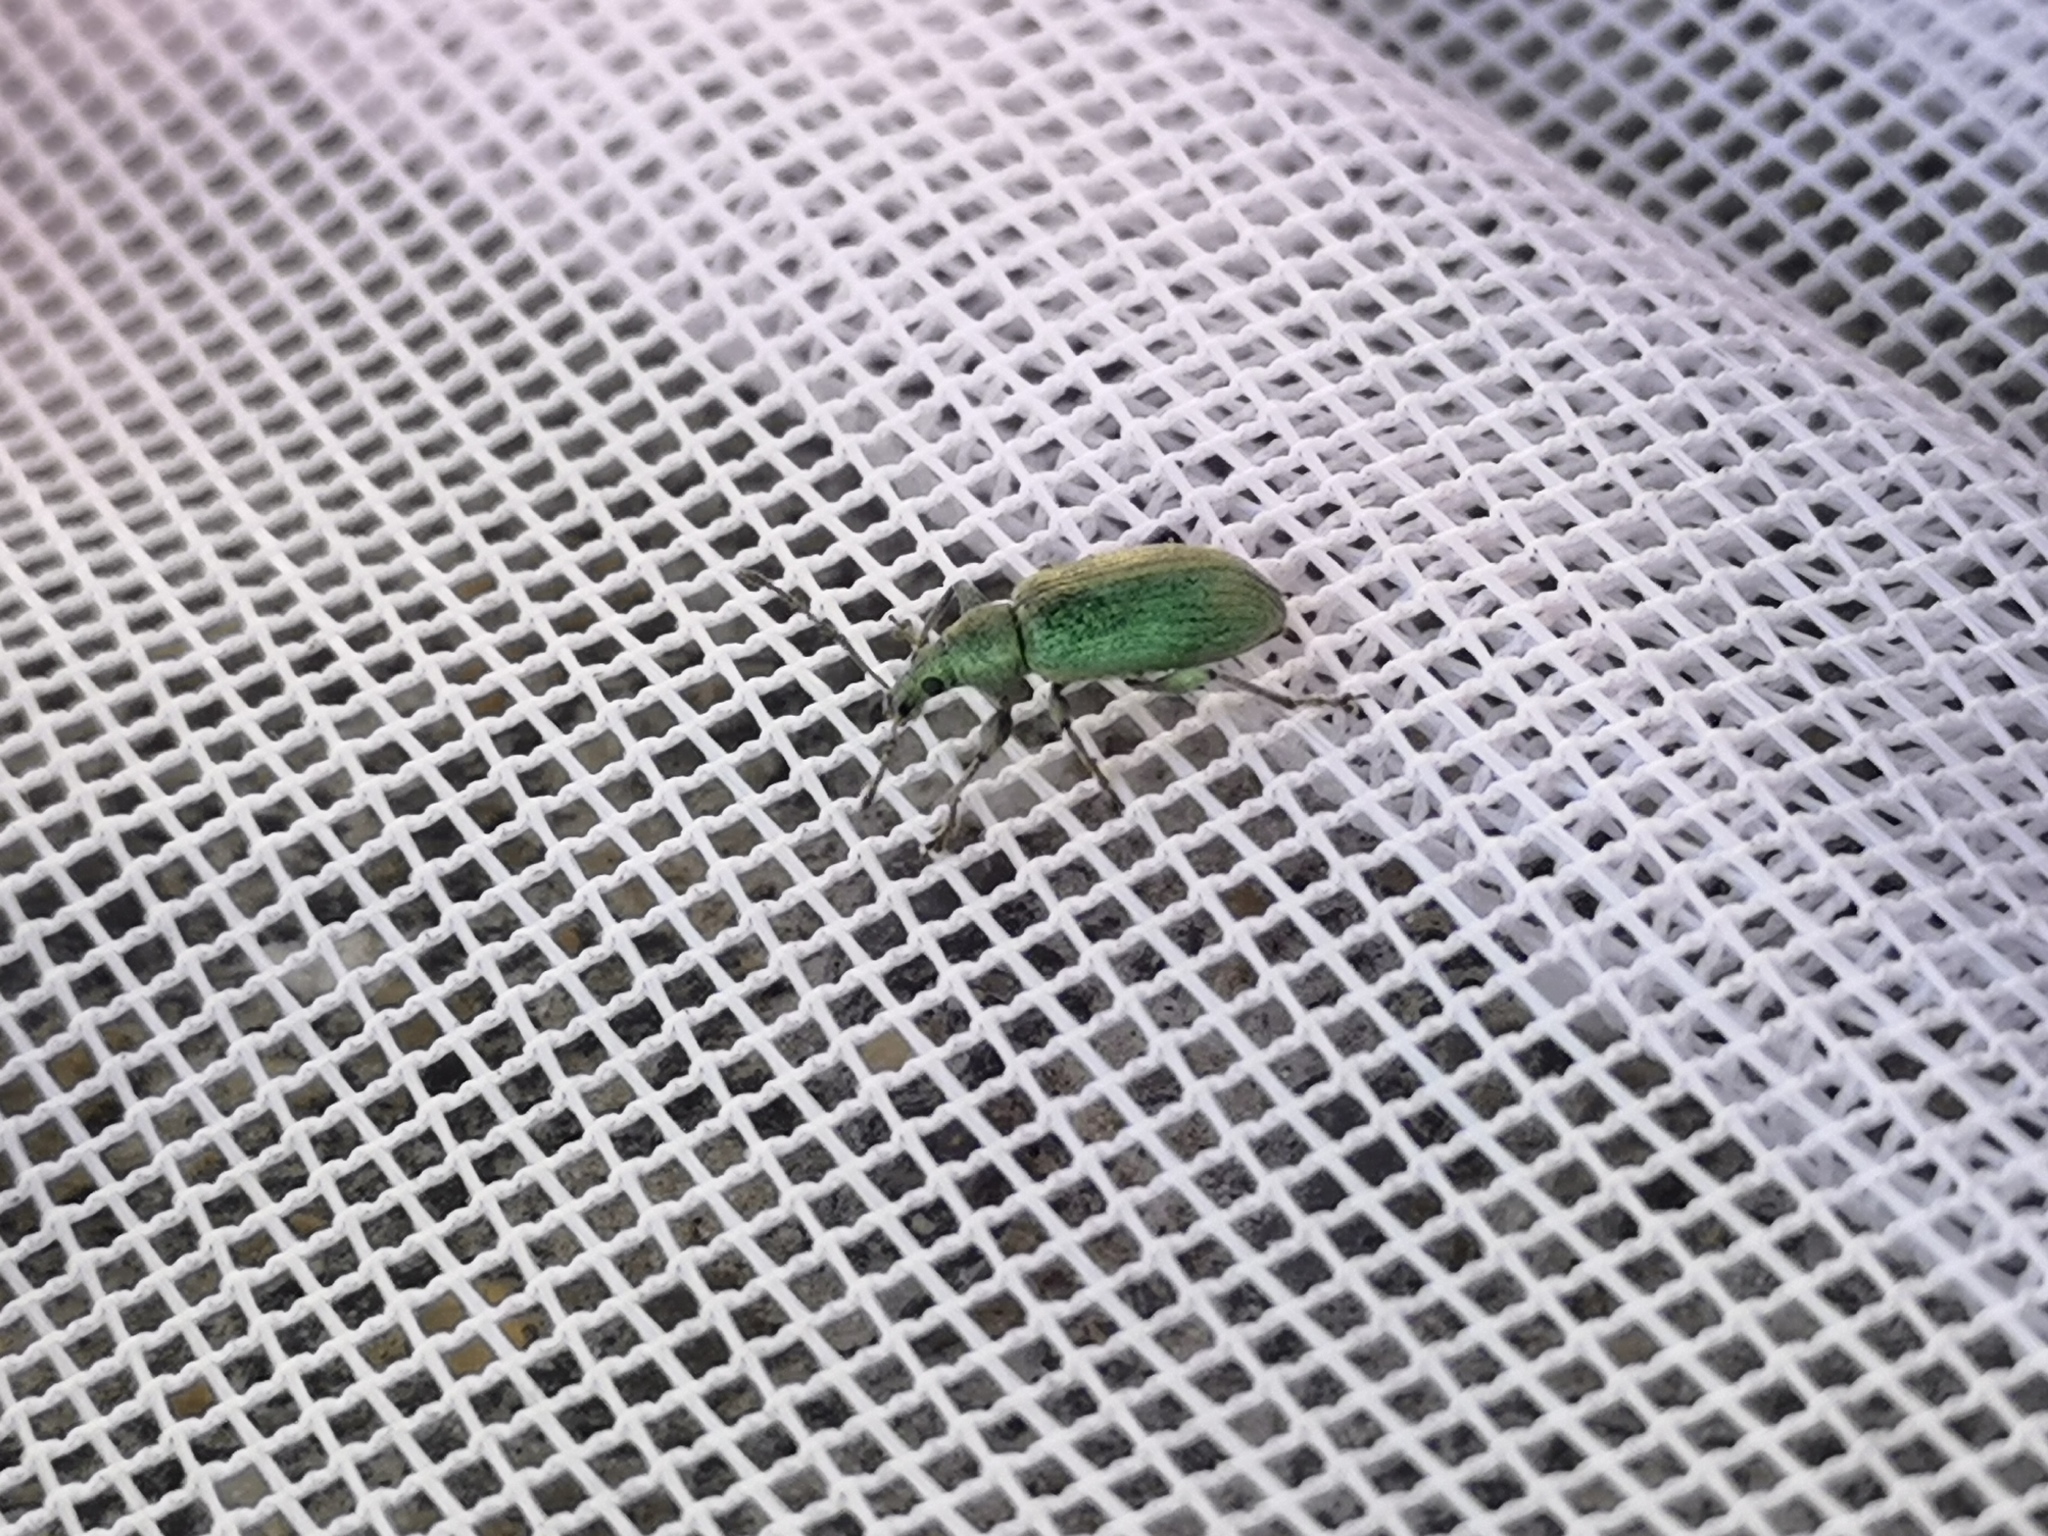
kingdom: Animalia
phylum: Arthropoda
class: Insecta
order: Coleoptera
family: Curculionidae
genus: Phyllobius
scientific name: Phyllobius pomaceus
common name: Green nettle weevil
